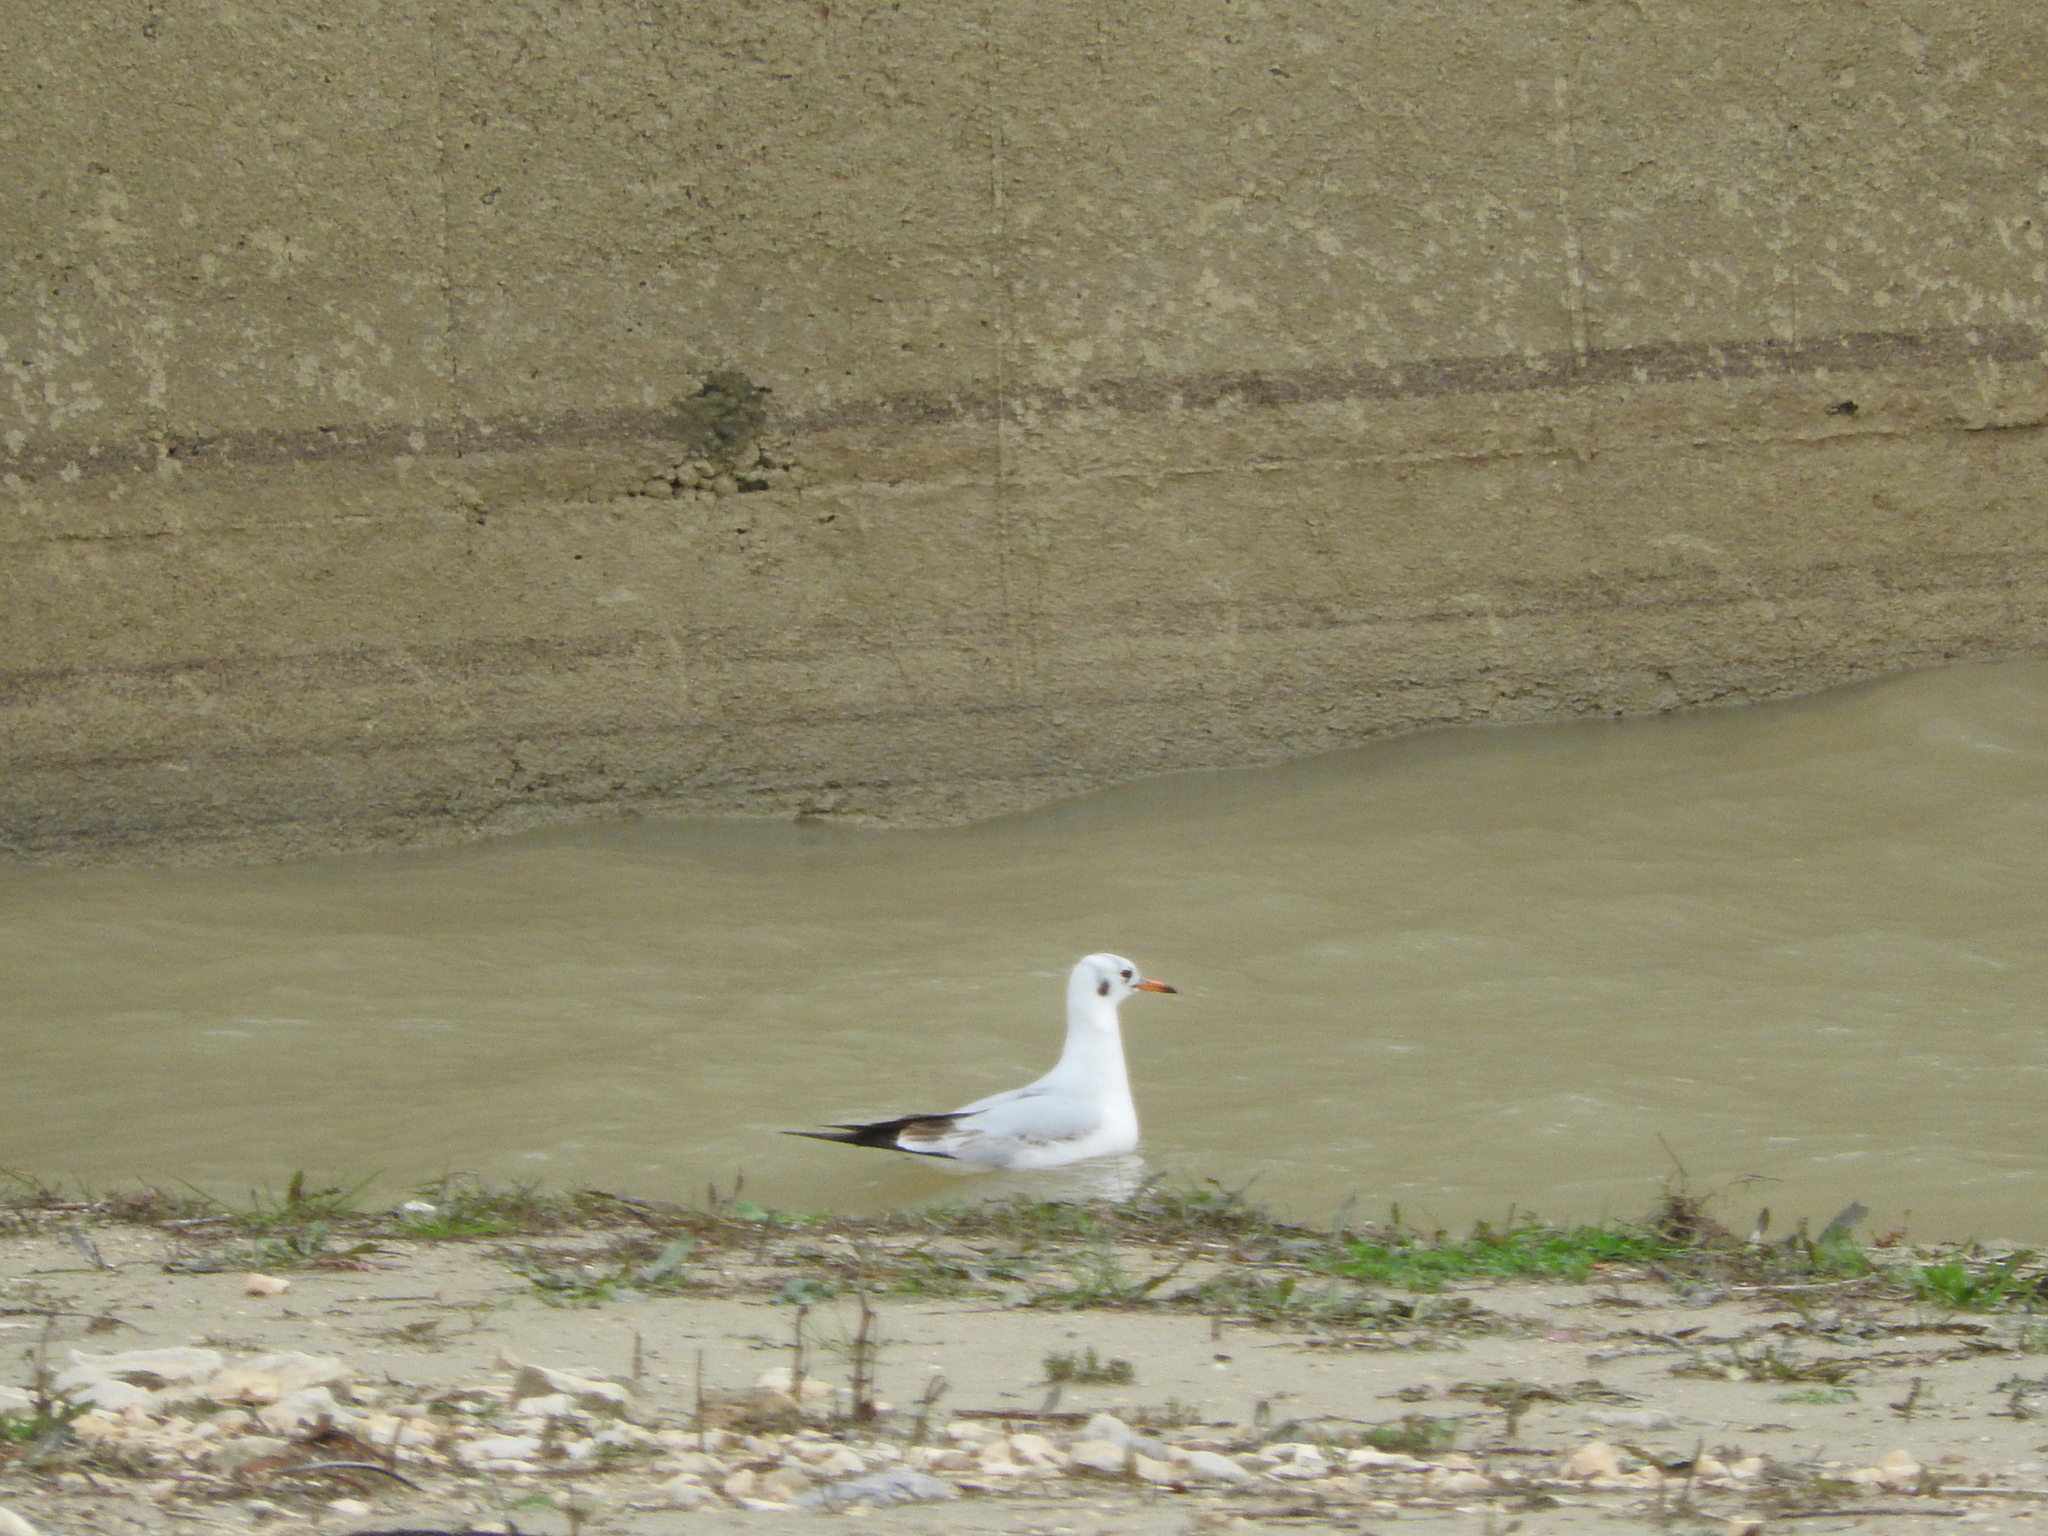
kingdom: Animalia
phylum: Chordata
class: Aves
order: Charadriiformes
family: Laridae
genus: Chroicocephalus
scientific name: Chroicocephalus ridibundus
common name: Black-headed gull
